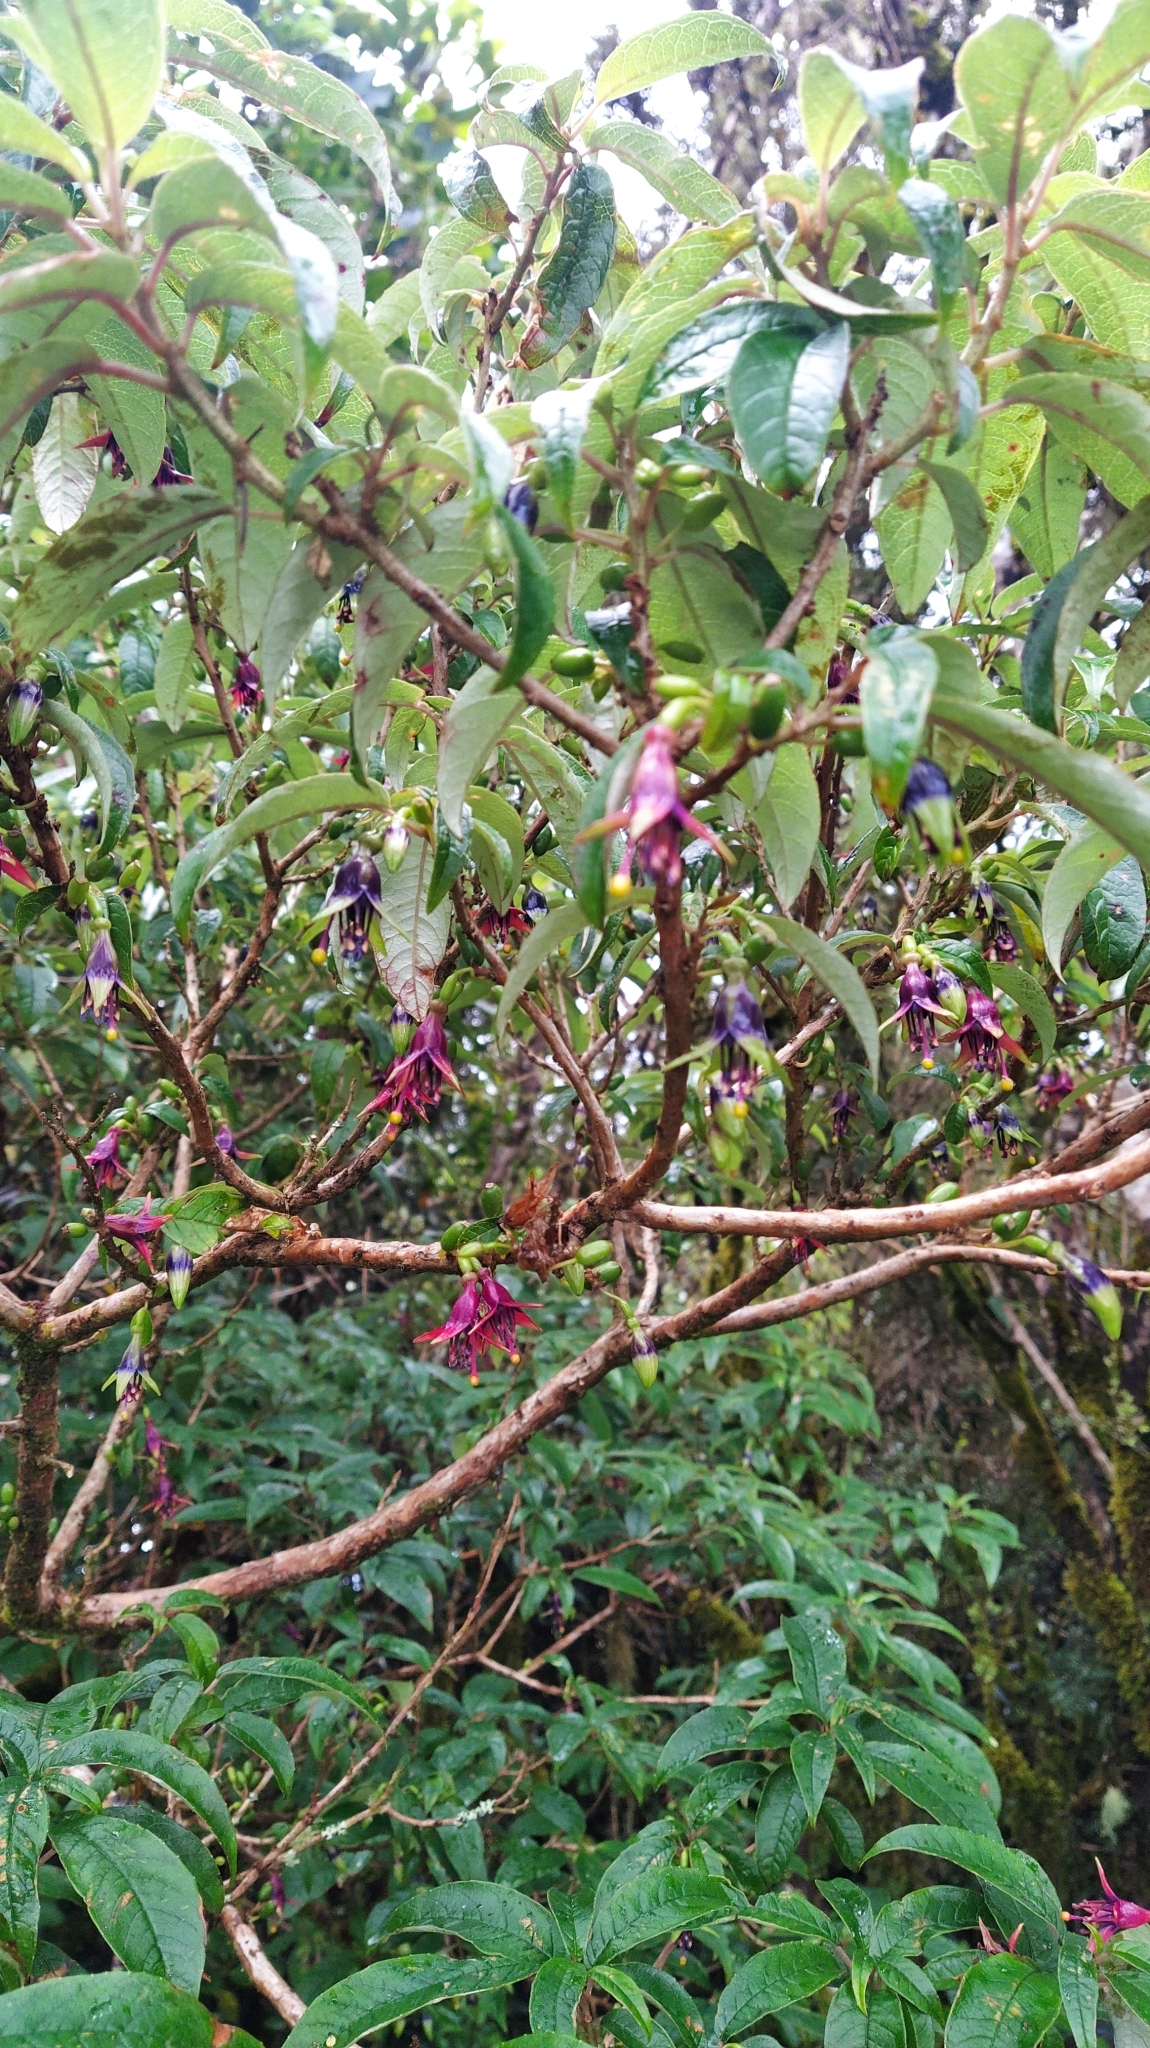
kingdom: Plantae
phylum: Tracheophyta
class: Magnoliopsida
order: Myrtales
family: Onagraceae
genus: Fuchsia
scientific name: Fuchsia excorticata
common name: Tree fuchsia
